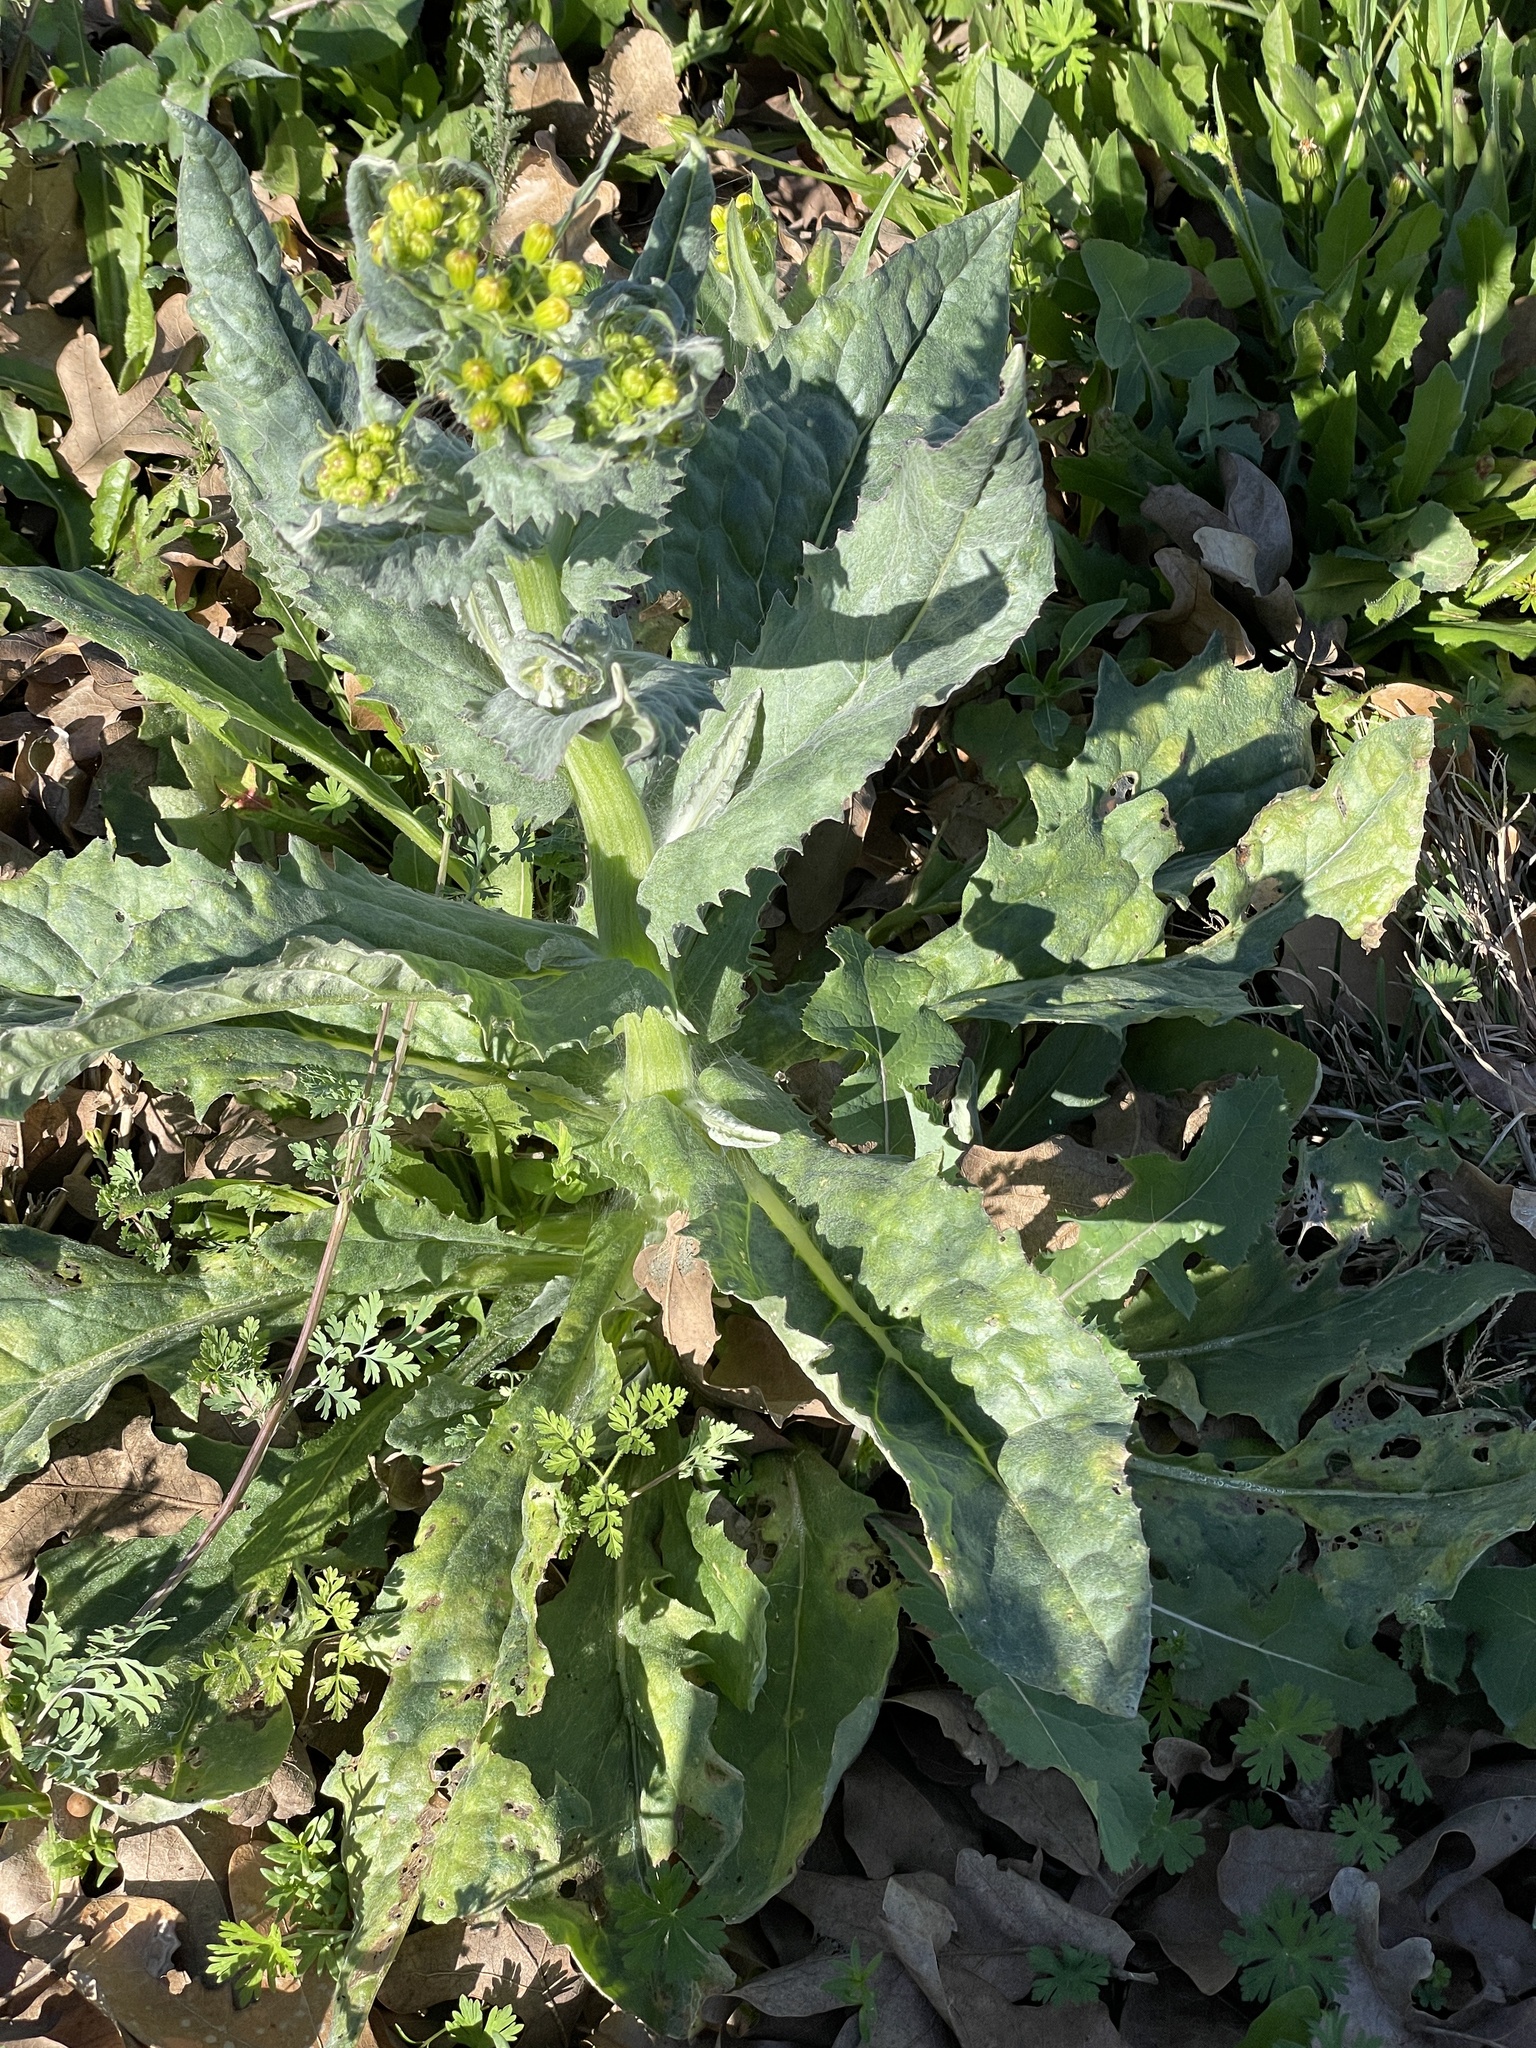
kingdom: Plantae
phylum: Tracheophyta
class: Magnoliopsida
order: Asterales
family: Asteraceae
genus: Senecio
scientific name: Senecio ampullaceus
